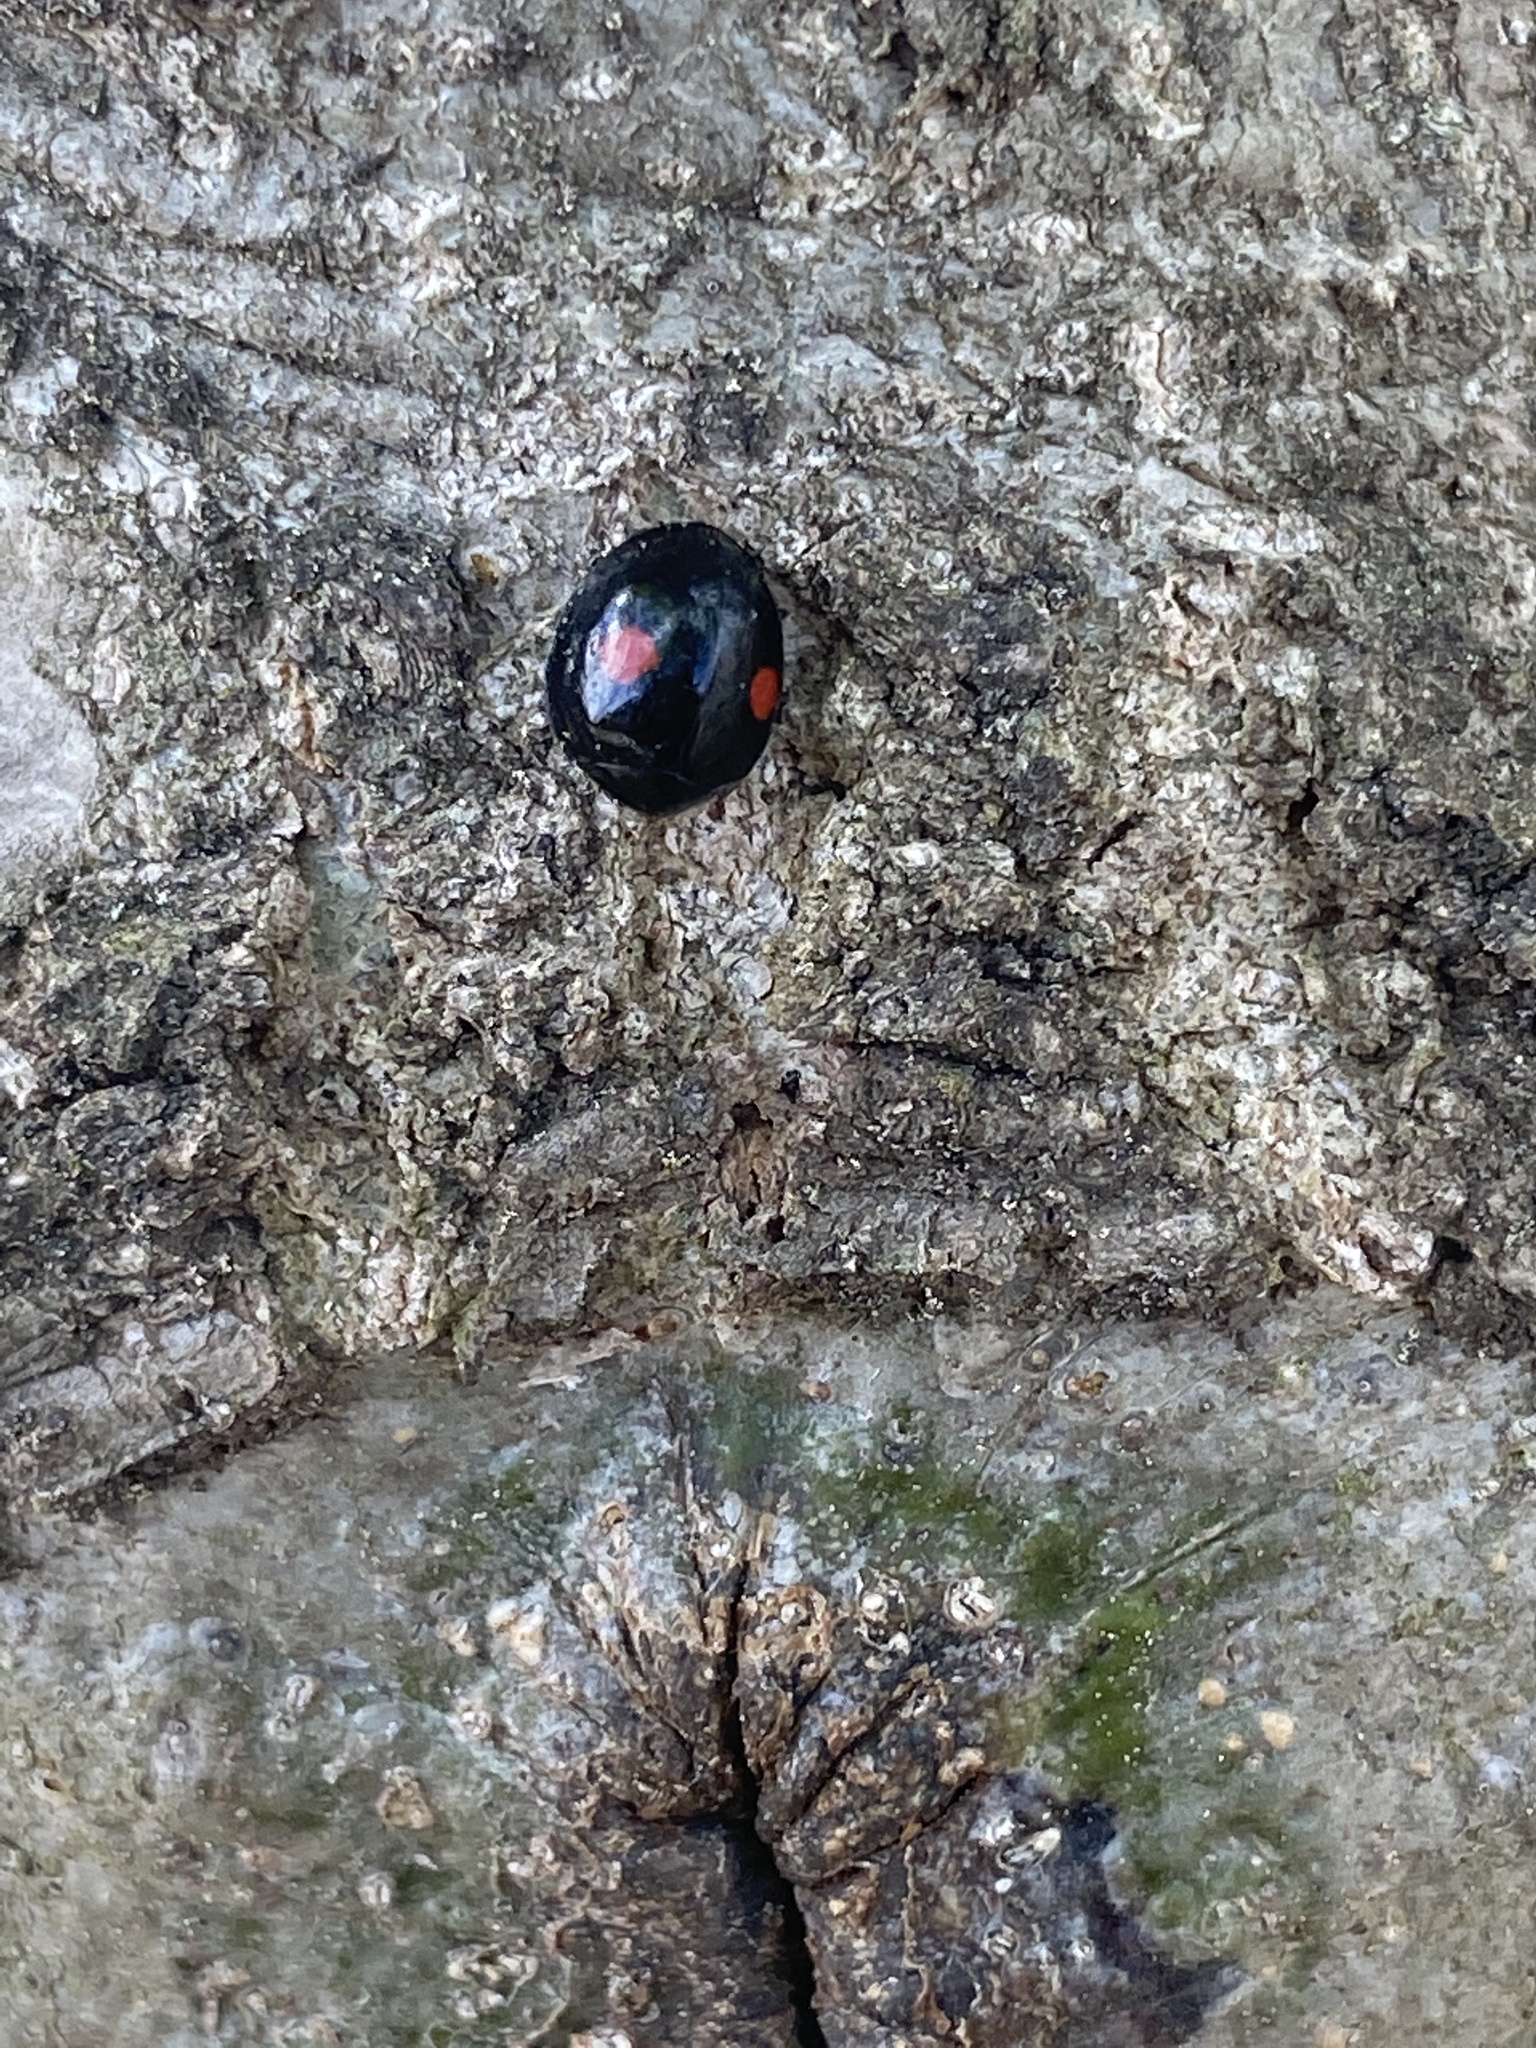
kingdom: Animalia
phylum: Arthropoda
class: Insecta
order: Coleoptera
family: Coccinellidae
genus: Chilocorus
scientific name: Chilocorus stigma
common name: Twicestabbed lady beetle
